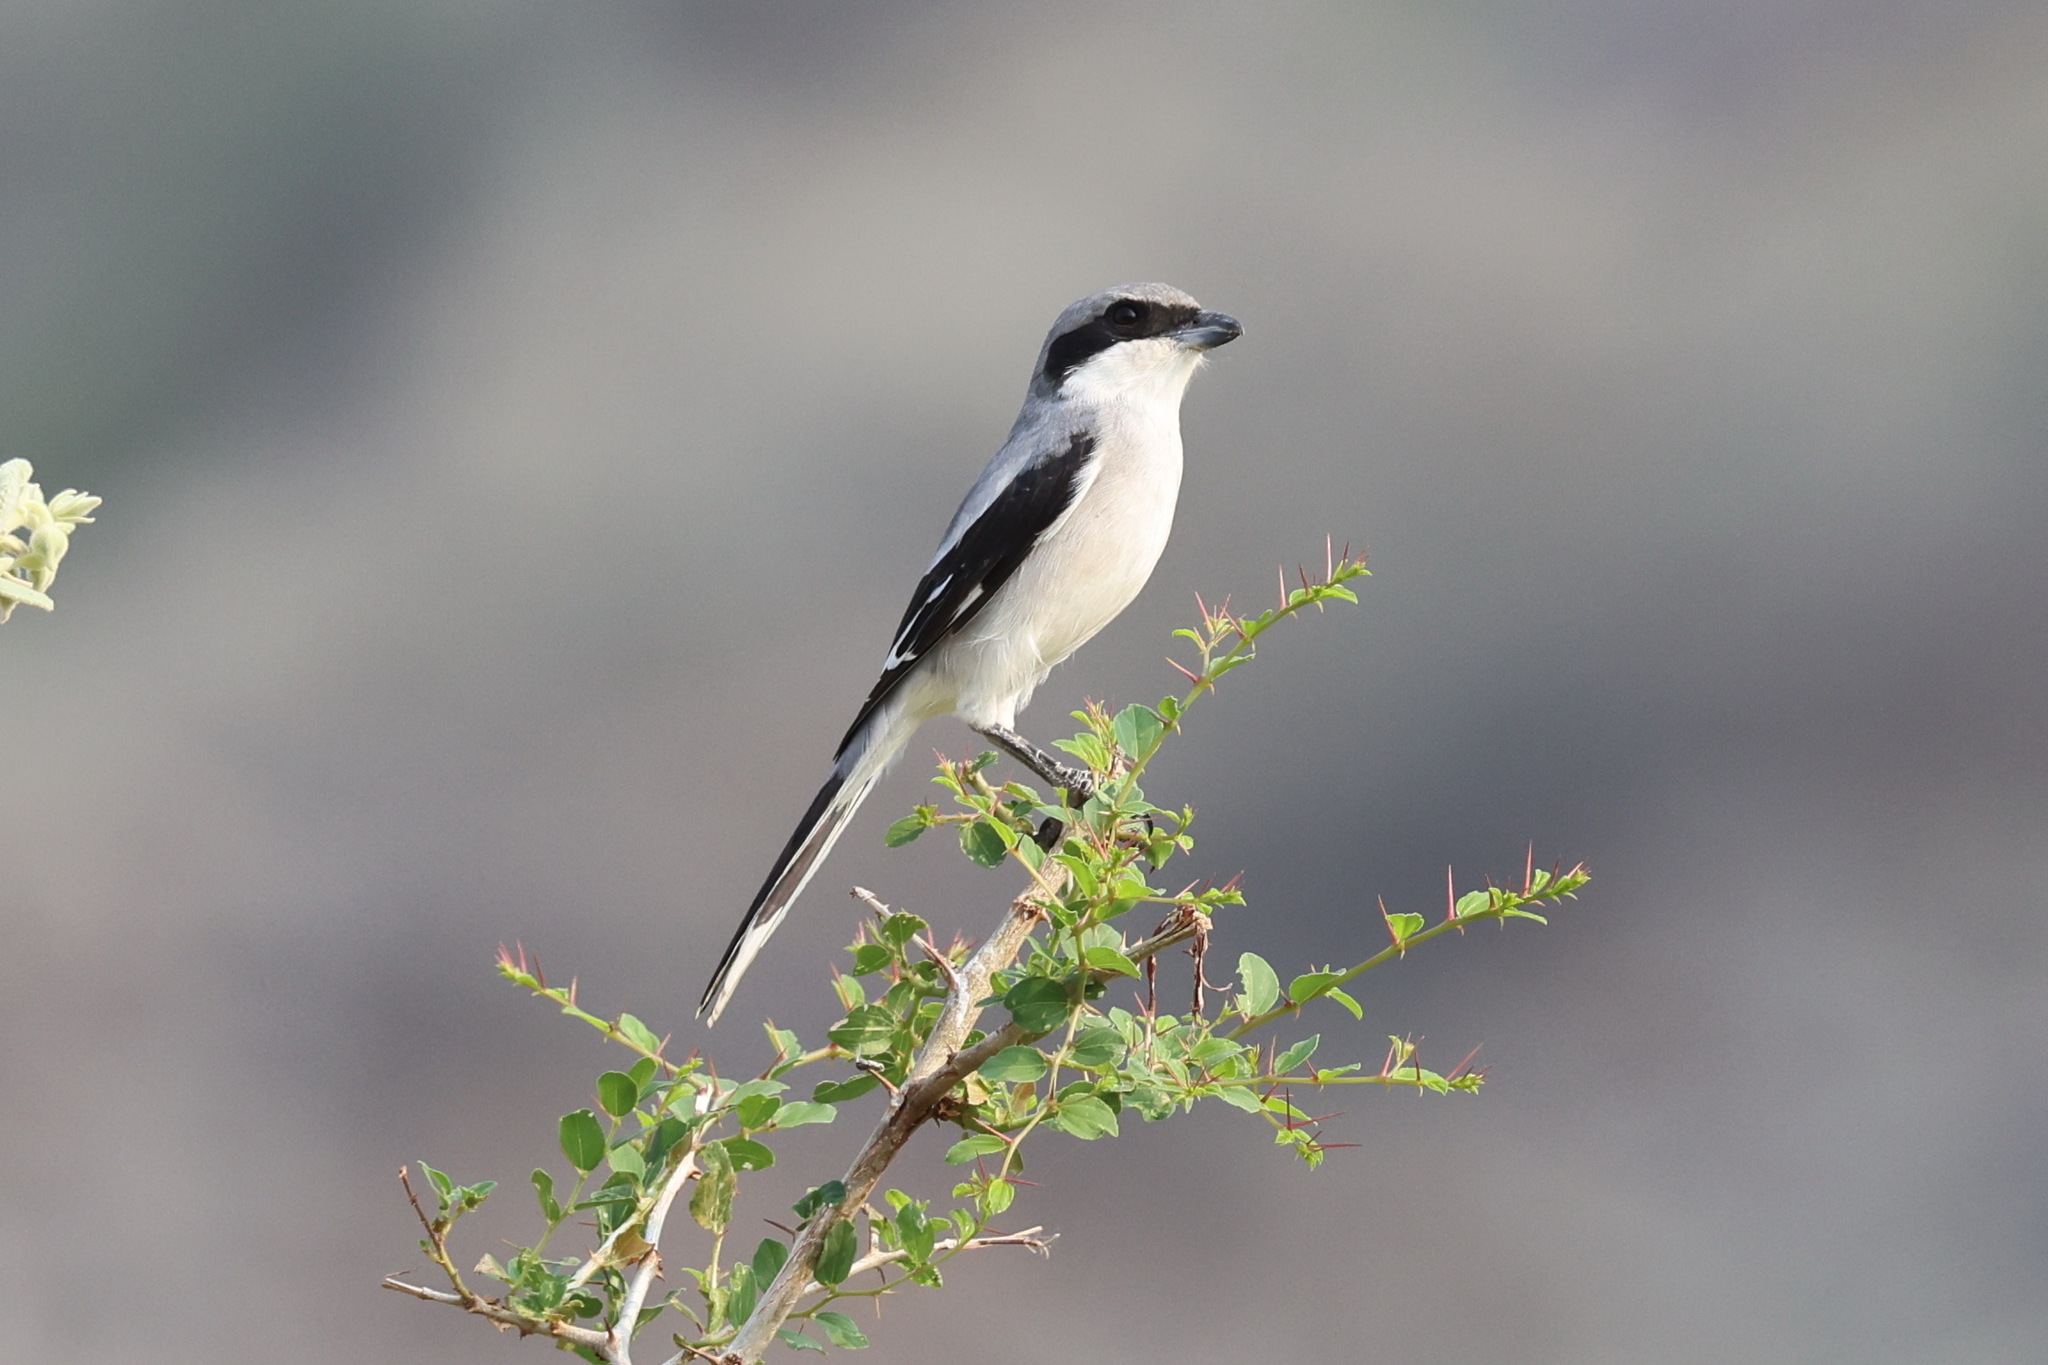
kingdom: Animalia
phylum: Chordata
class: Aves
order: Passeriformes
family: Laniidae
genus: Lanius
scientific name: Lanius excubitor
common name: Great grey shrike
